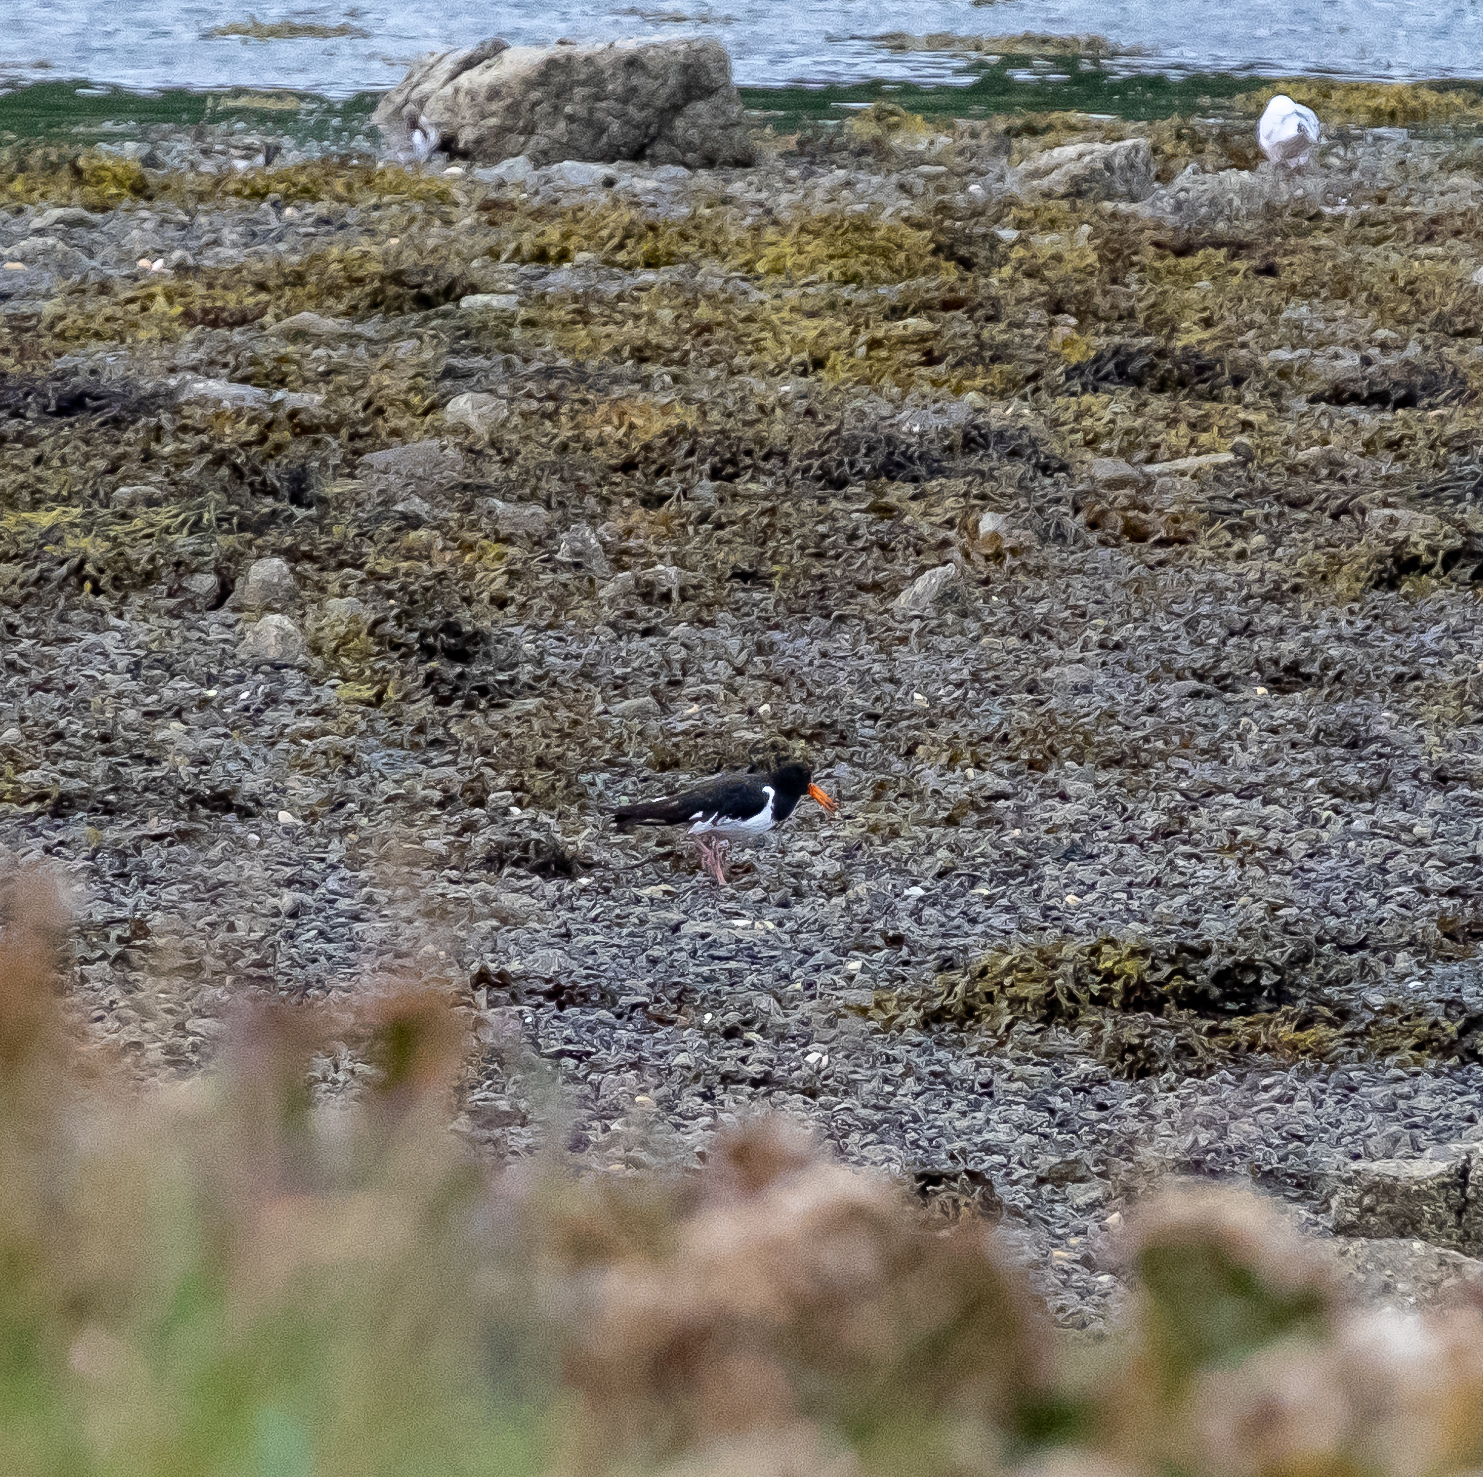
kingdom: Animalia
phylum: Chordata
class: Aves
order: Charadriiformes
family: Haematopodidae
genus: Haematopus
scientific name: Haematopus ostralegus
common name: Eurasian oystercatcher
